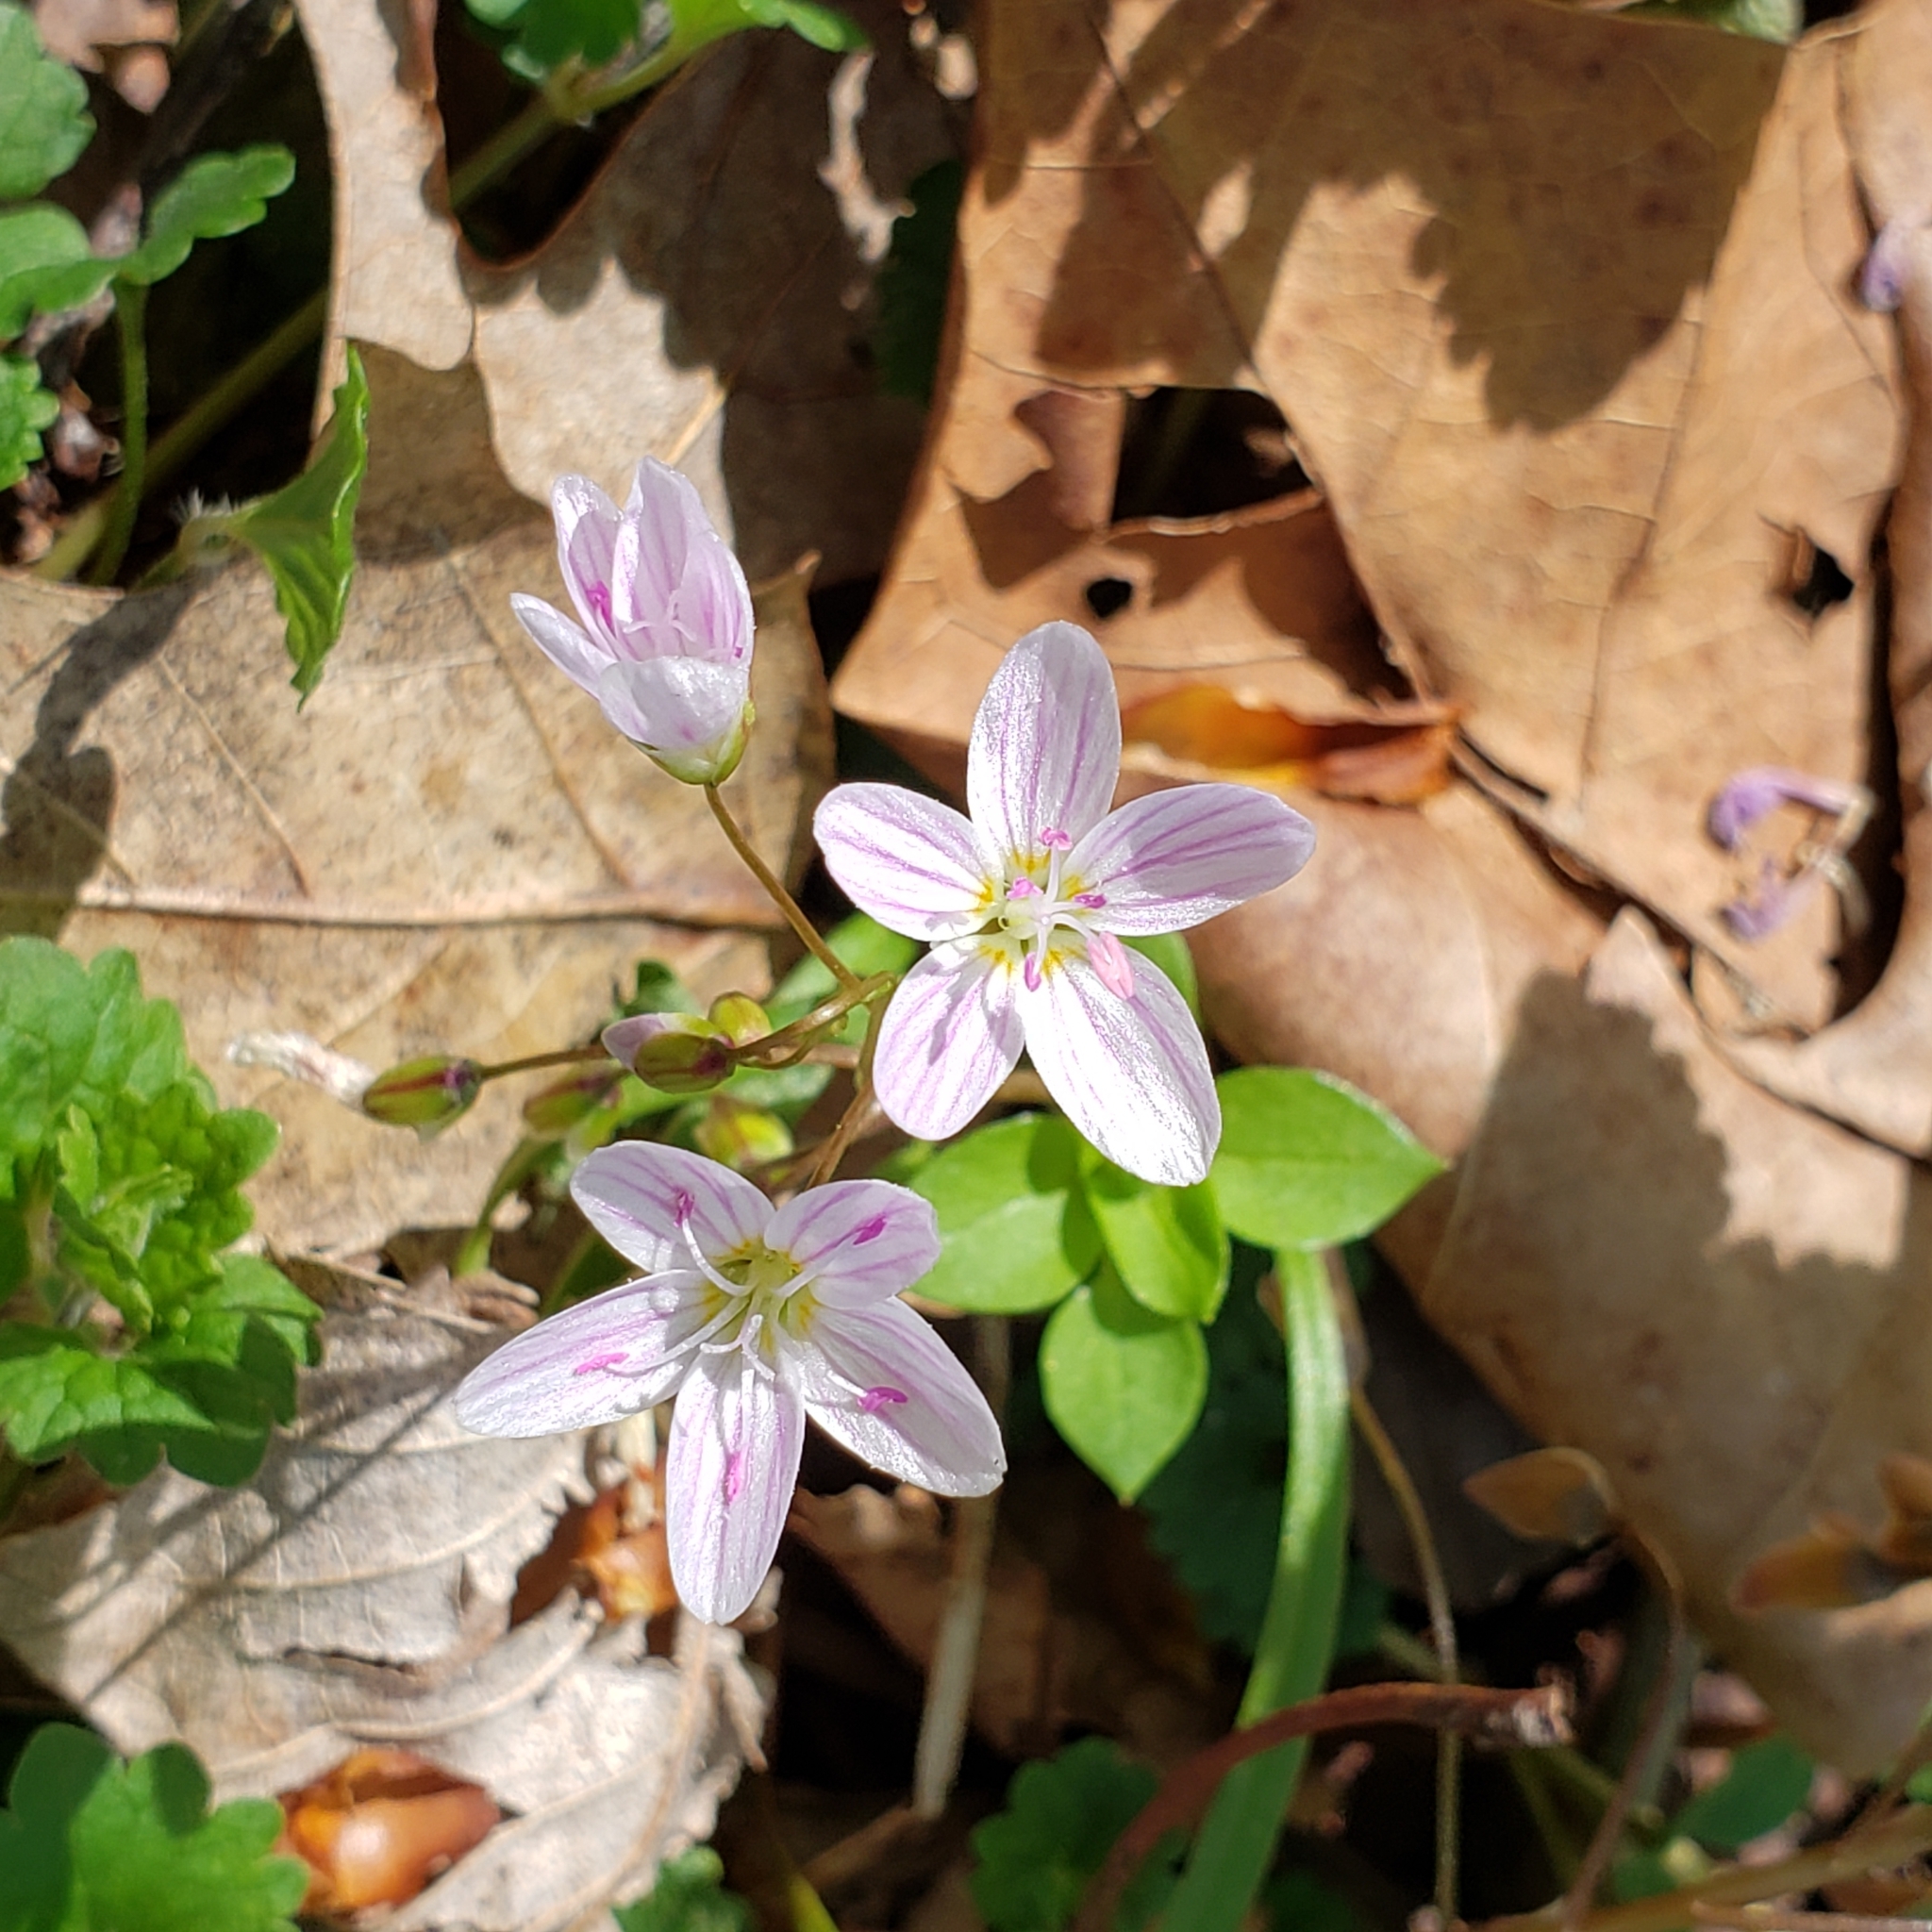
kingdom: Plantae
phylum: Tracheophyta
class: Magnoliopsida
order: Caryophyllales
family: Montiaceae
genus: Claytonia
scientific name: Claytonia virginica
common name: Virginia springbeauty
